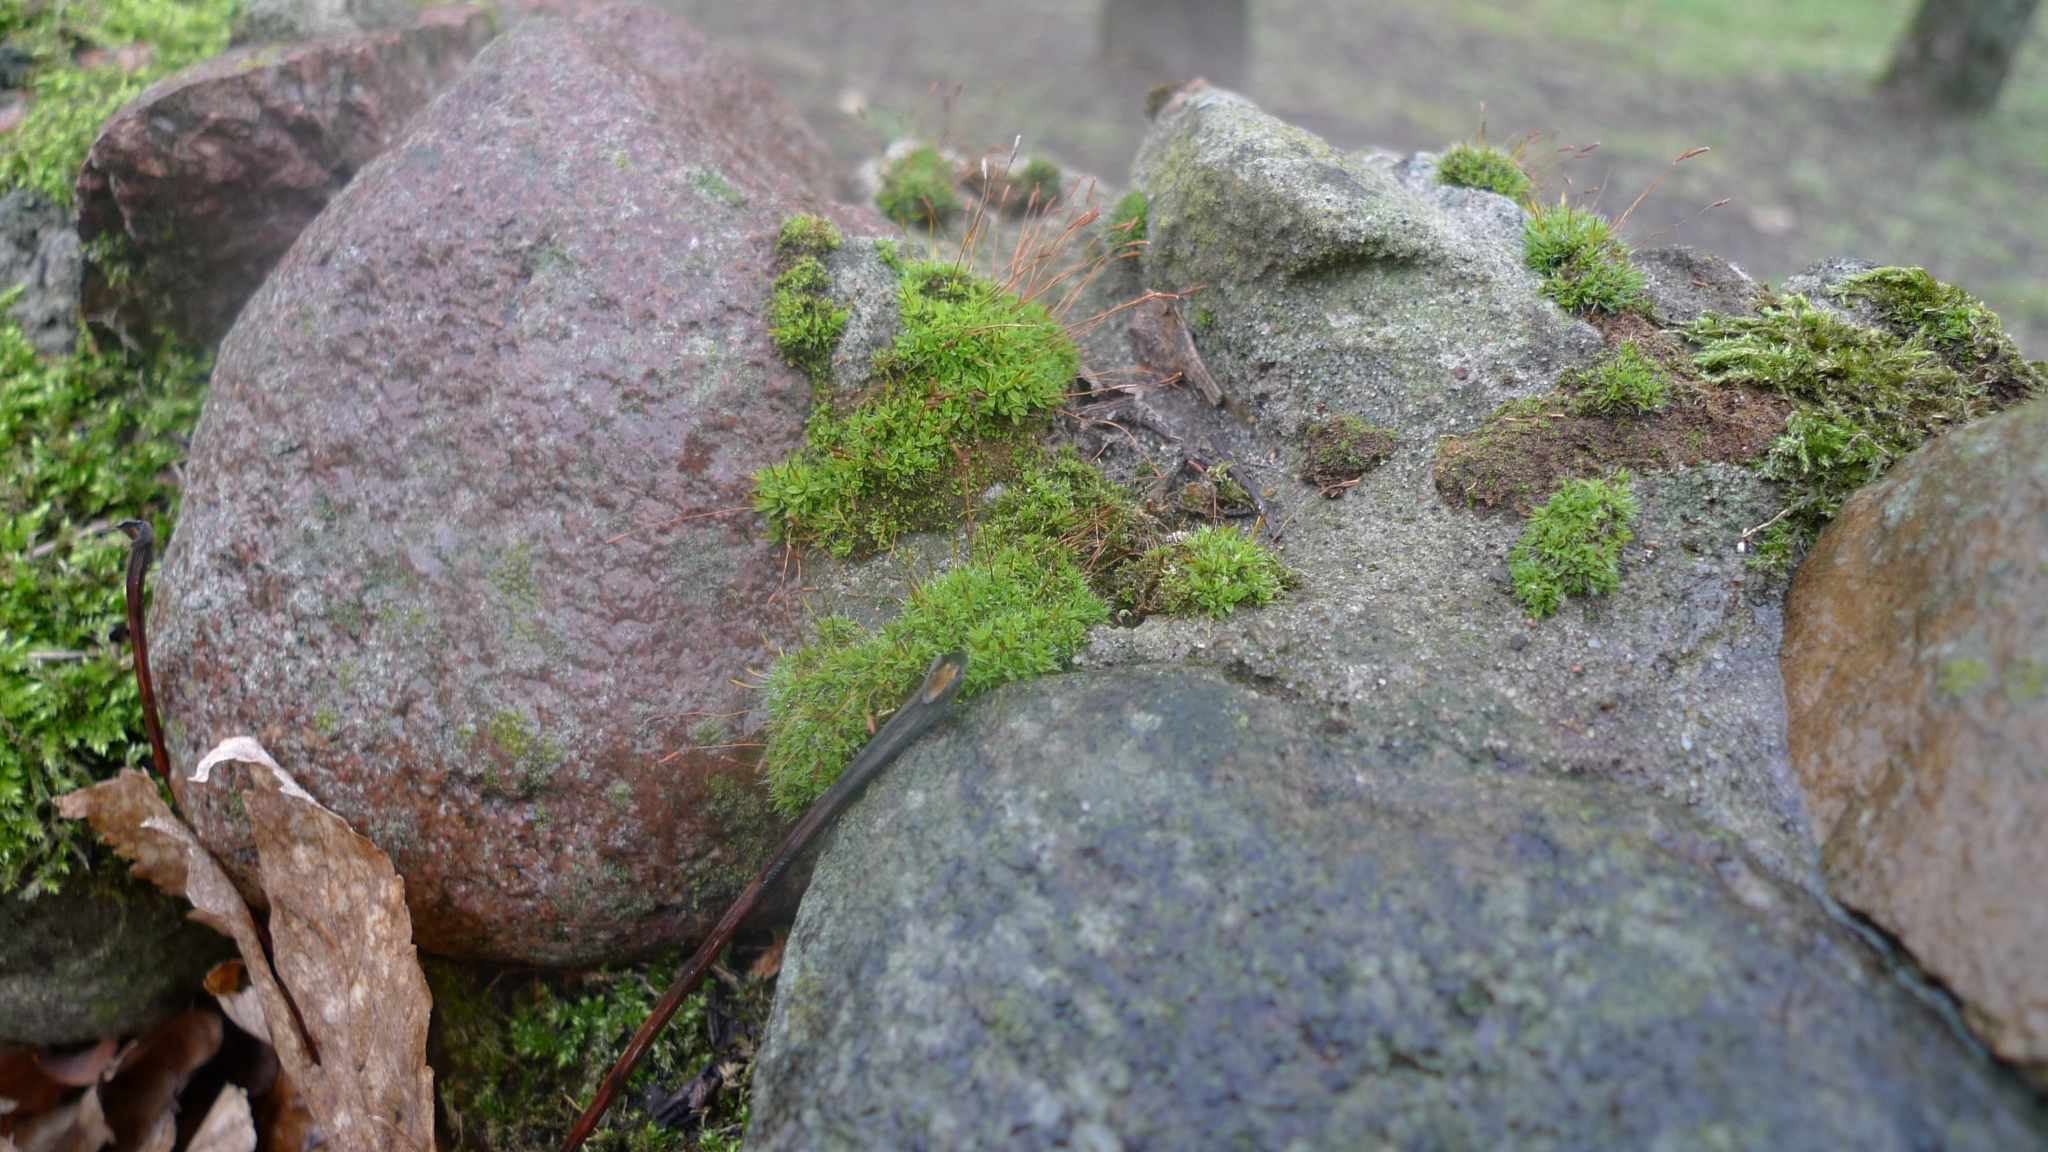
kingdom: Plantae
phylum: Bryophyta
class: Bryopsida
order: Pottiales
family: Pottiaceae
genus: Tortula
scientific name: Tortula muralis
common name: Wall screw-moss
